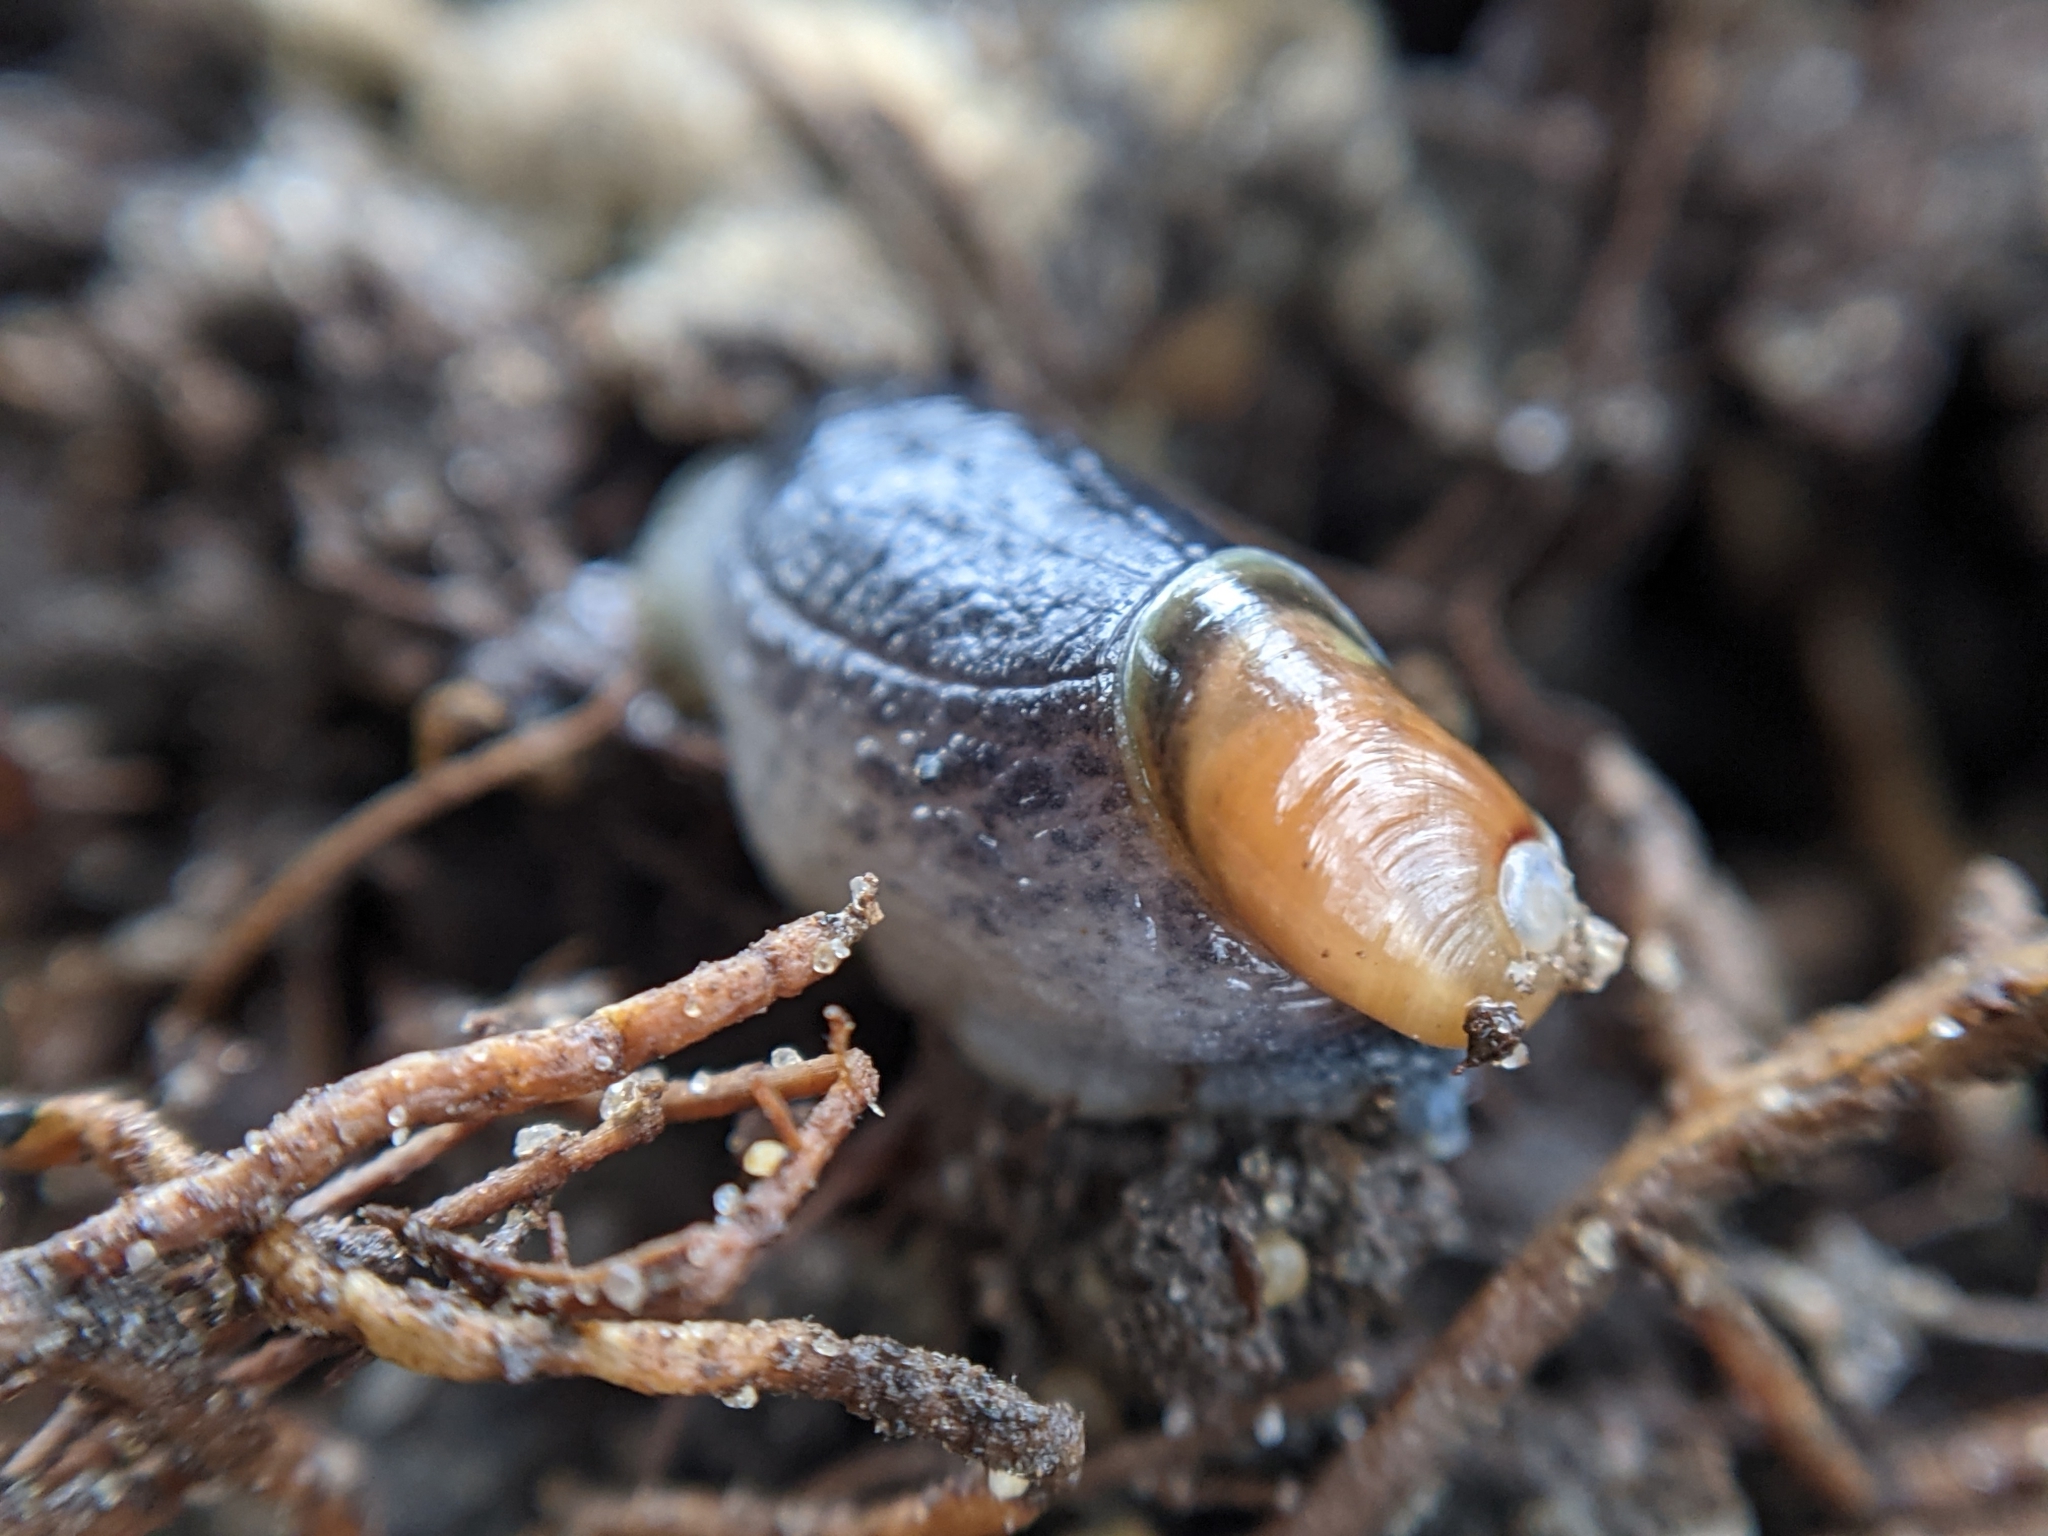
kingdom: Animalia
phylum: Mollusca
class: Gastropoda
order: Stylommatophora
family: Oxychilidae
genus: Daudebardia
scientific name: Daudebardia rufa
